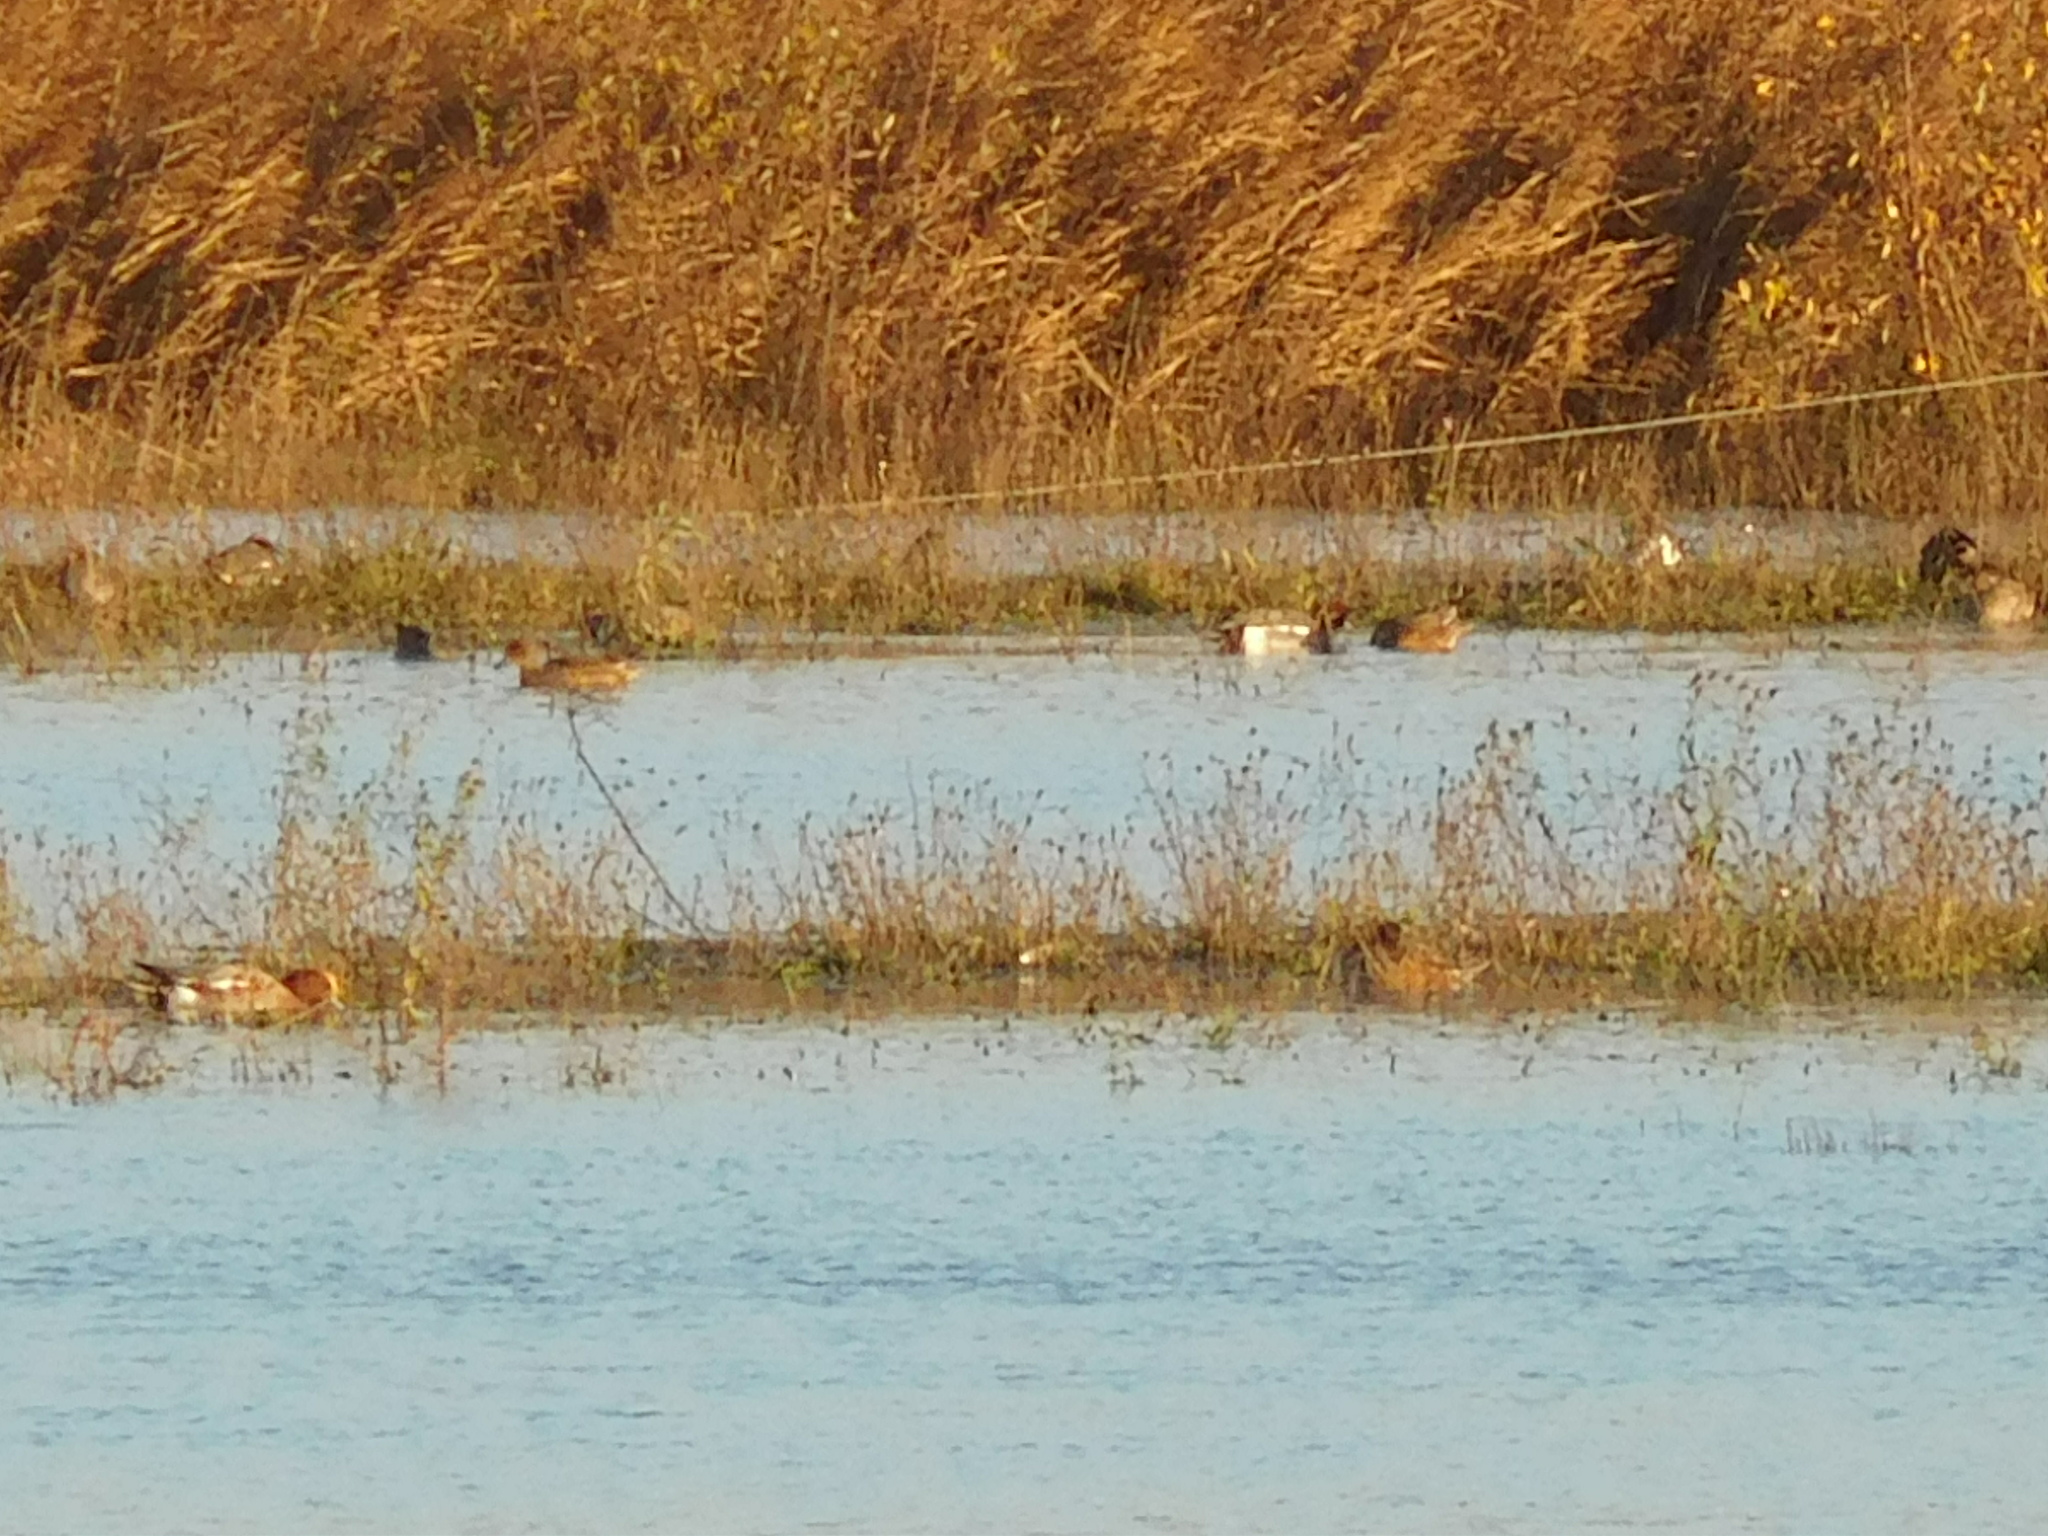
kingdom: Animalia
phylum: Chordata
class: Aves
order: Anseriformes
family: Anatidae
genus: Mareca
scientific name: Mareca penelope
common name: Eurasian wigeon
